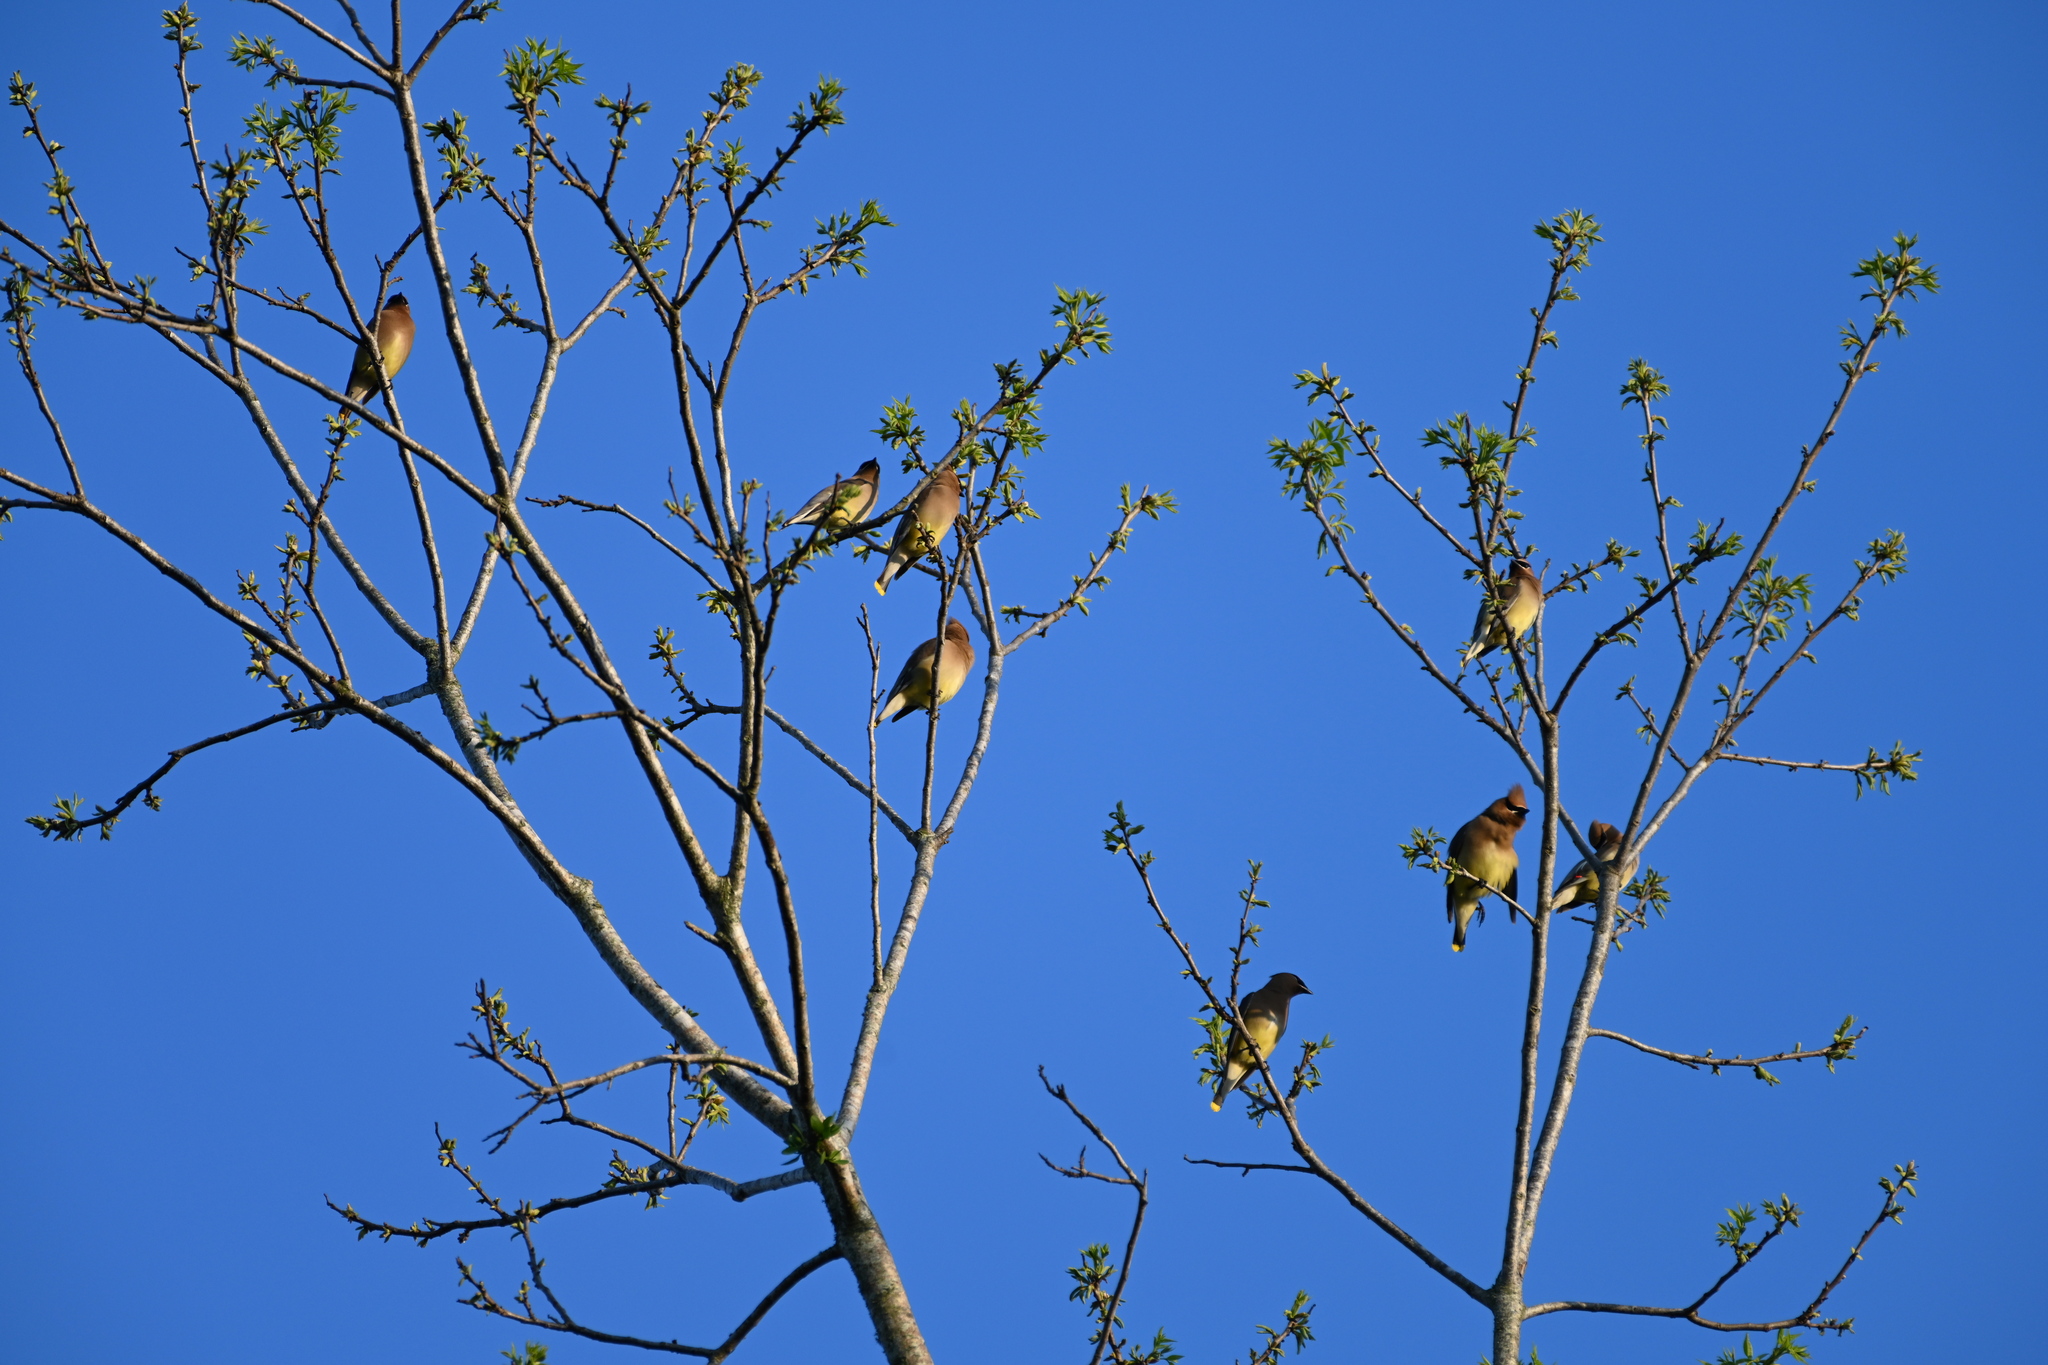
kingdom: Animalia
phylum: Chordata
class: Aves
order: Passeriformes
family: Bombycillidae
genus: Bombycilla
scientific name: Bombycilla cedrorum
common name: Cedar waxwing
